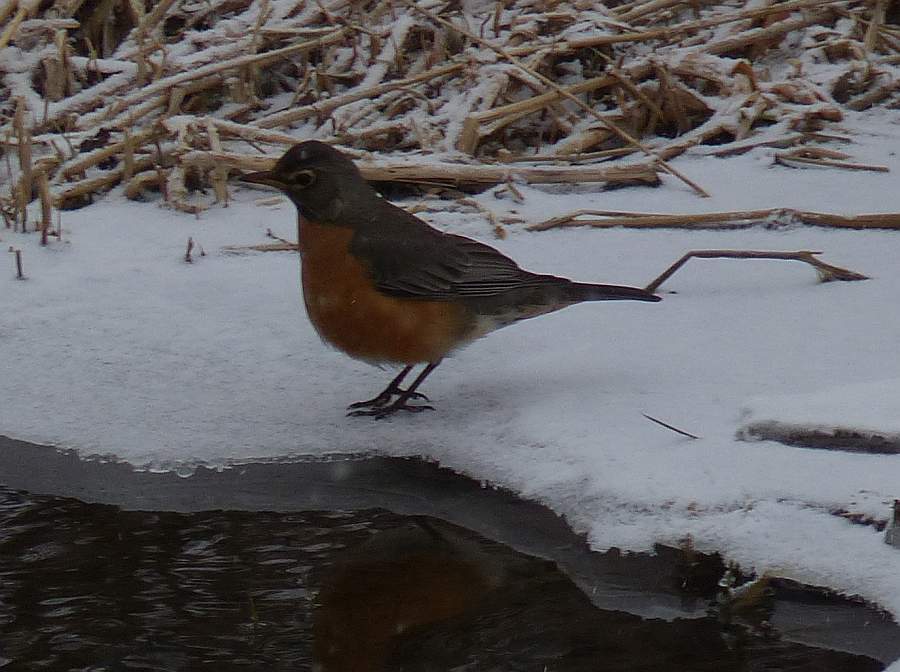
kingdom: Animalia
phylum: Chordata
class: Aves
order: Passeriformes
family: Turdidae
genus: Turdus
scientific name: Turdus migratorius
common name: American robin
